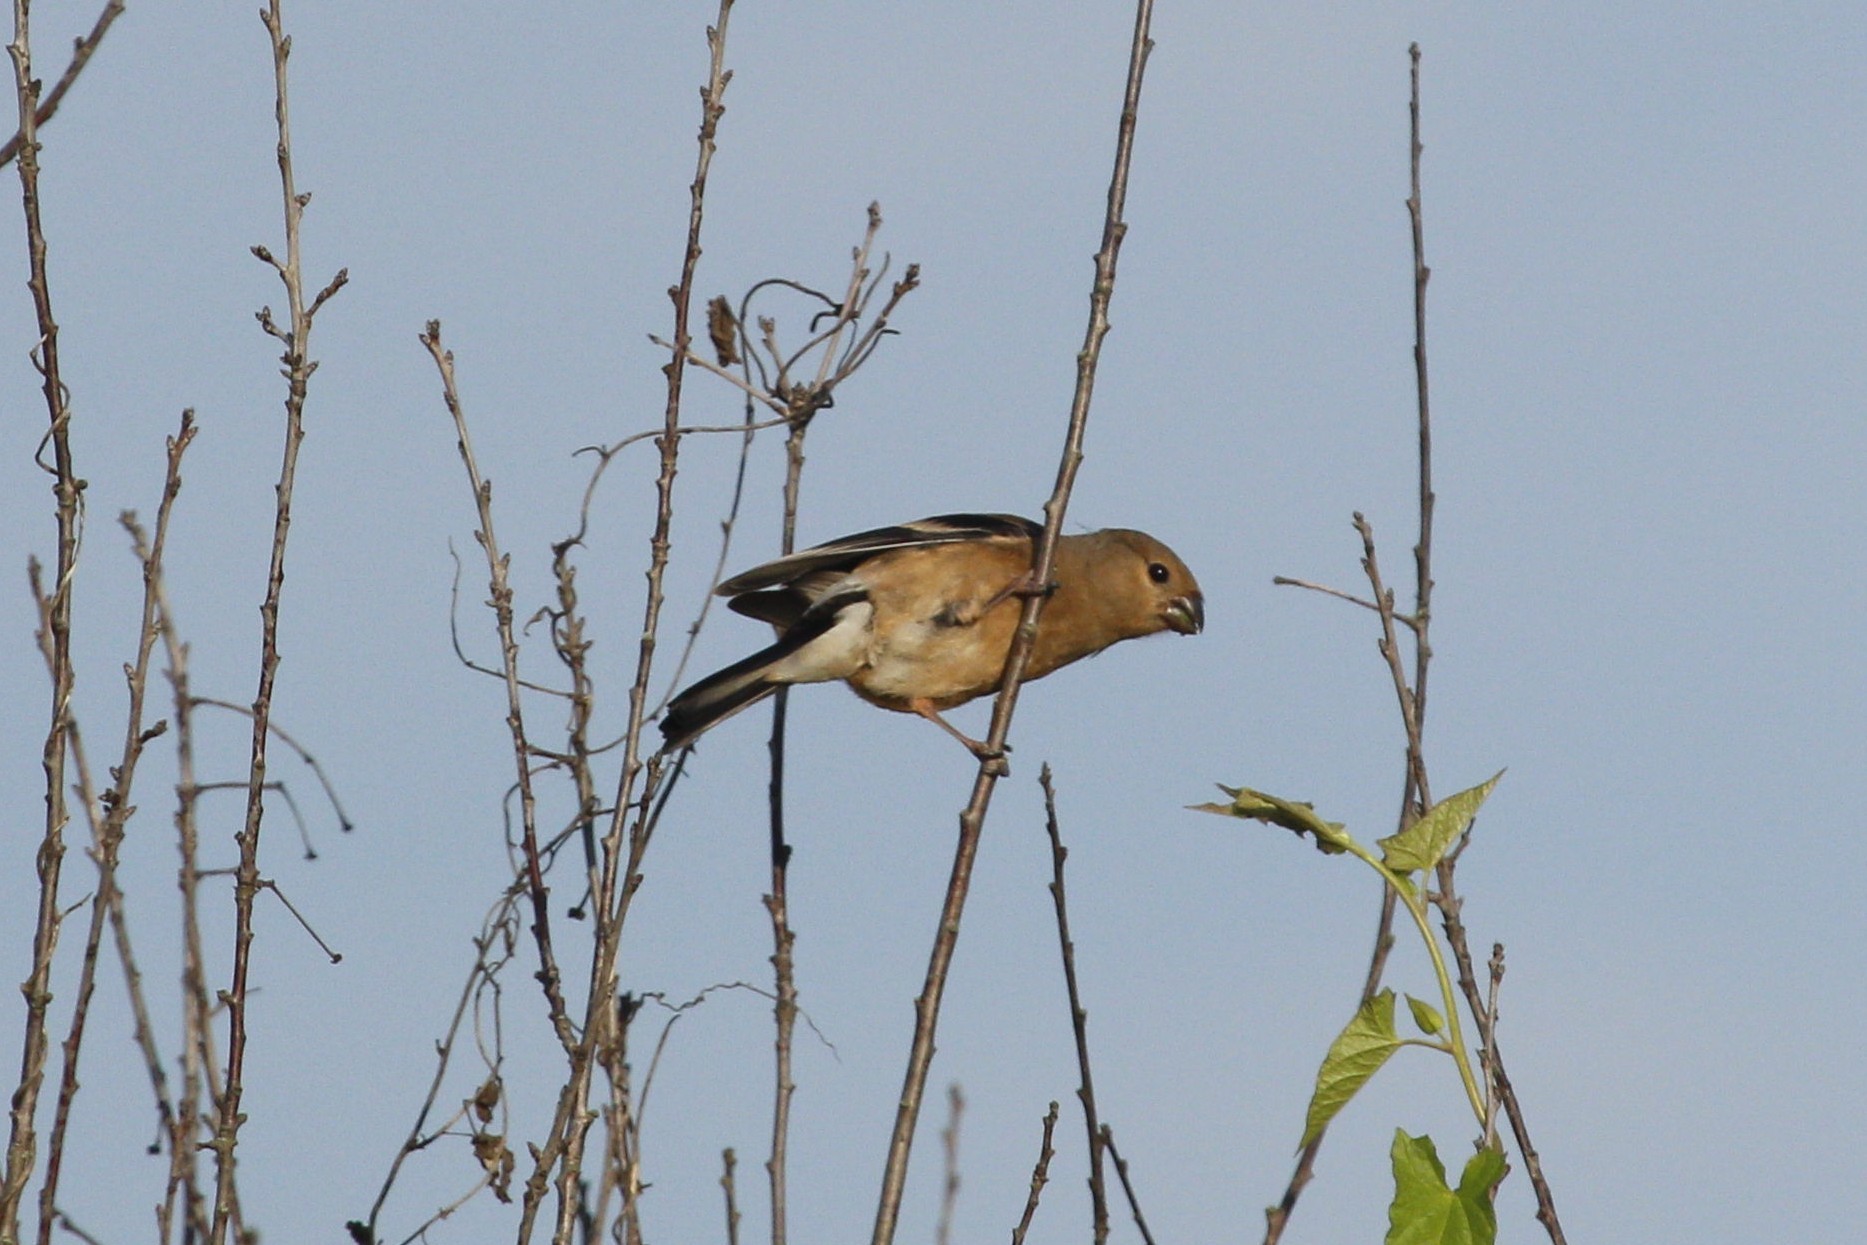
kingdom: Animalia
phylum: Chordata
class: Aves
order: Passeriformes
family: Fringillidae
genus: Pyrrhula
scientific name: Pyrrhula pyrrhula
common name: Eurasian bullfinch
